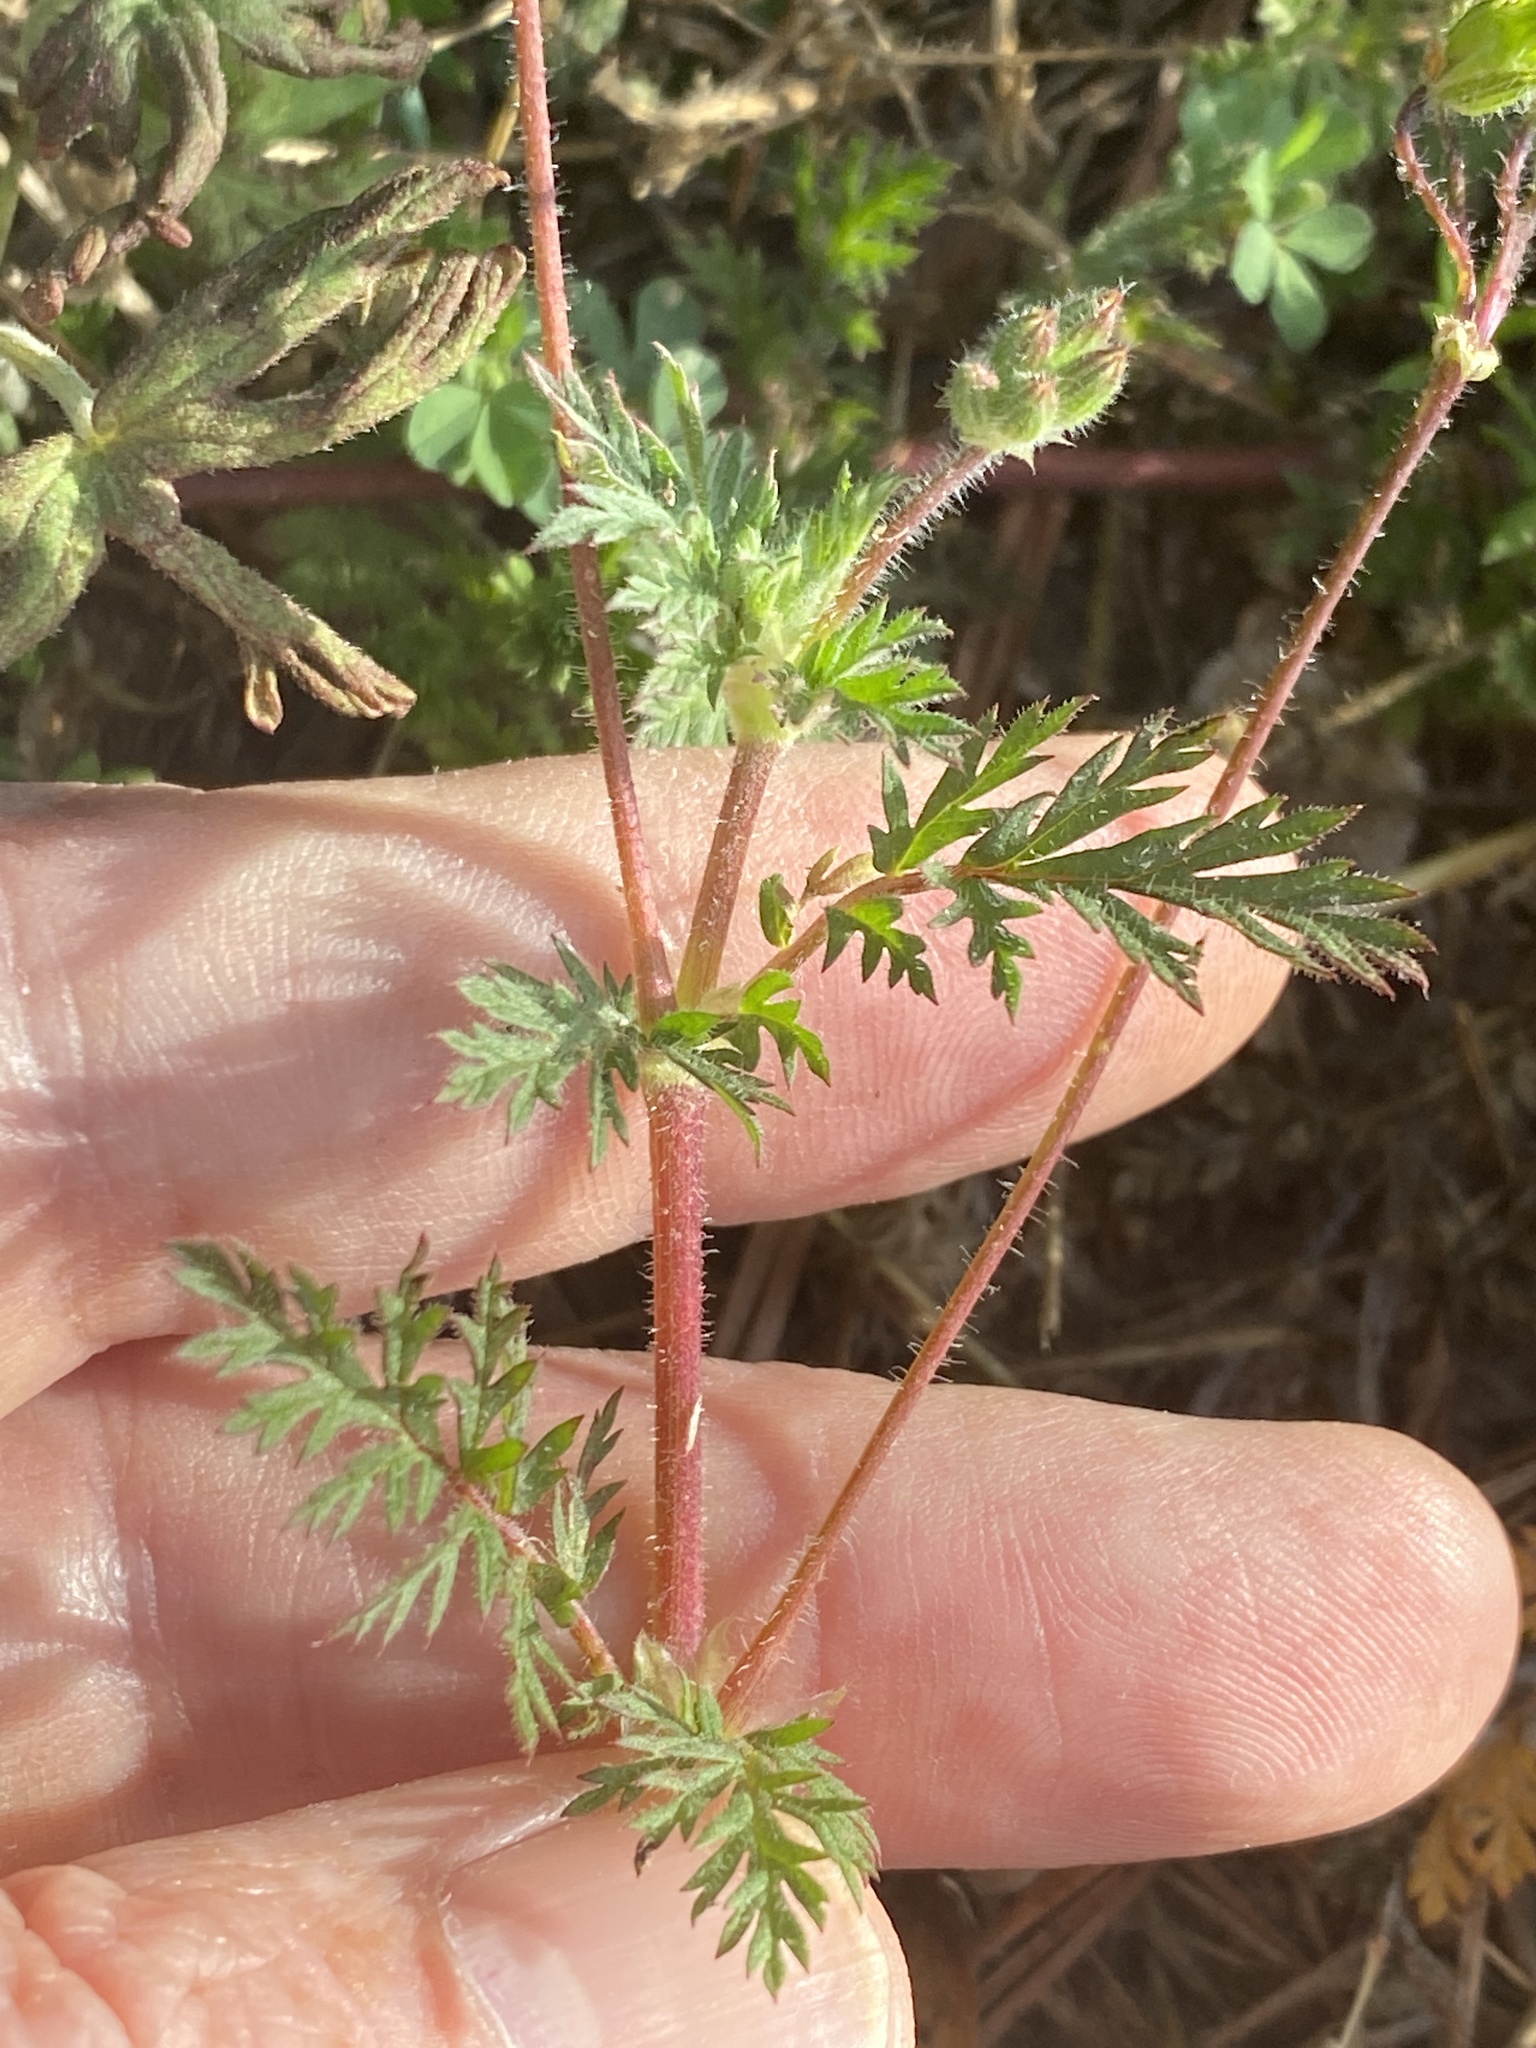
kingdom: Plantae
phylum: Tracheophyta
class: Magnoliopsida
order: Geraniales
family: Geraniaceae
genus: Erodium
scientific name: Erodium cicutarium
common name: Common stork's-bill
